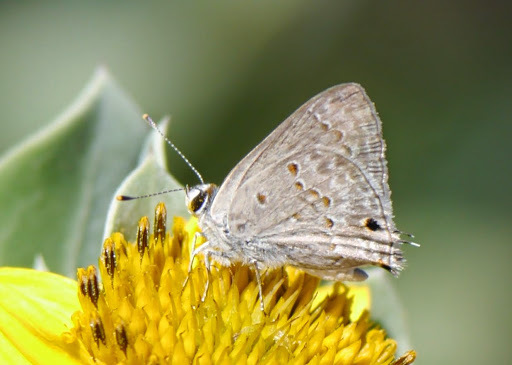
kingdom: Animalia
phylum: Arthropoda
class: Insecta
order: Lepidoptera
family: Lycaenidae
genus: Callicista
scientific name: Callicista columella
